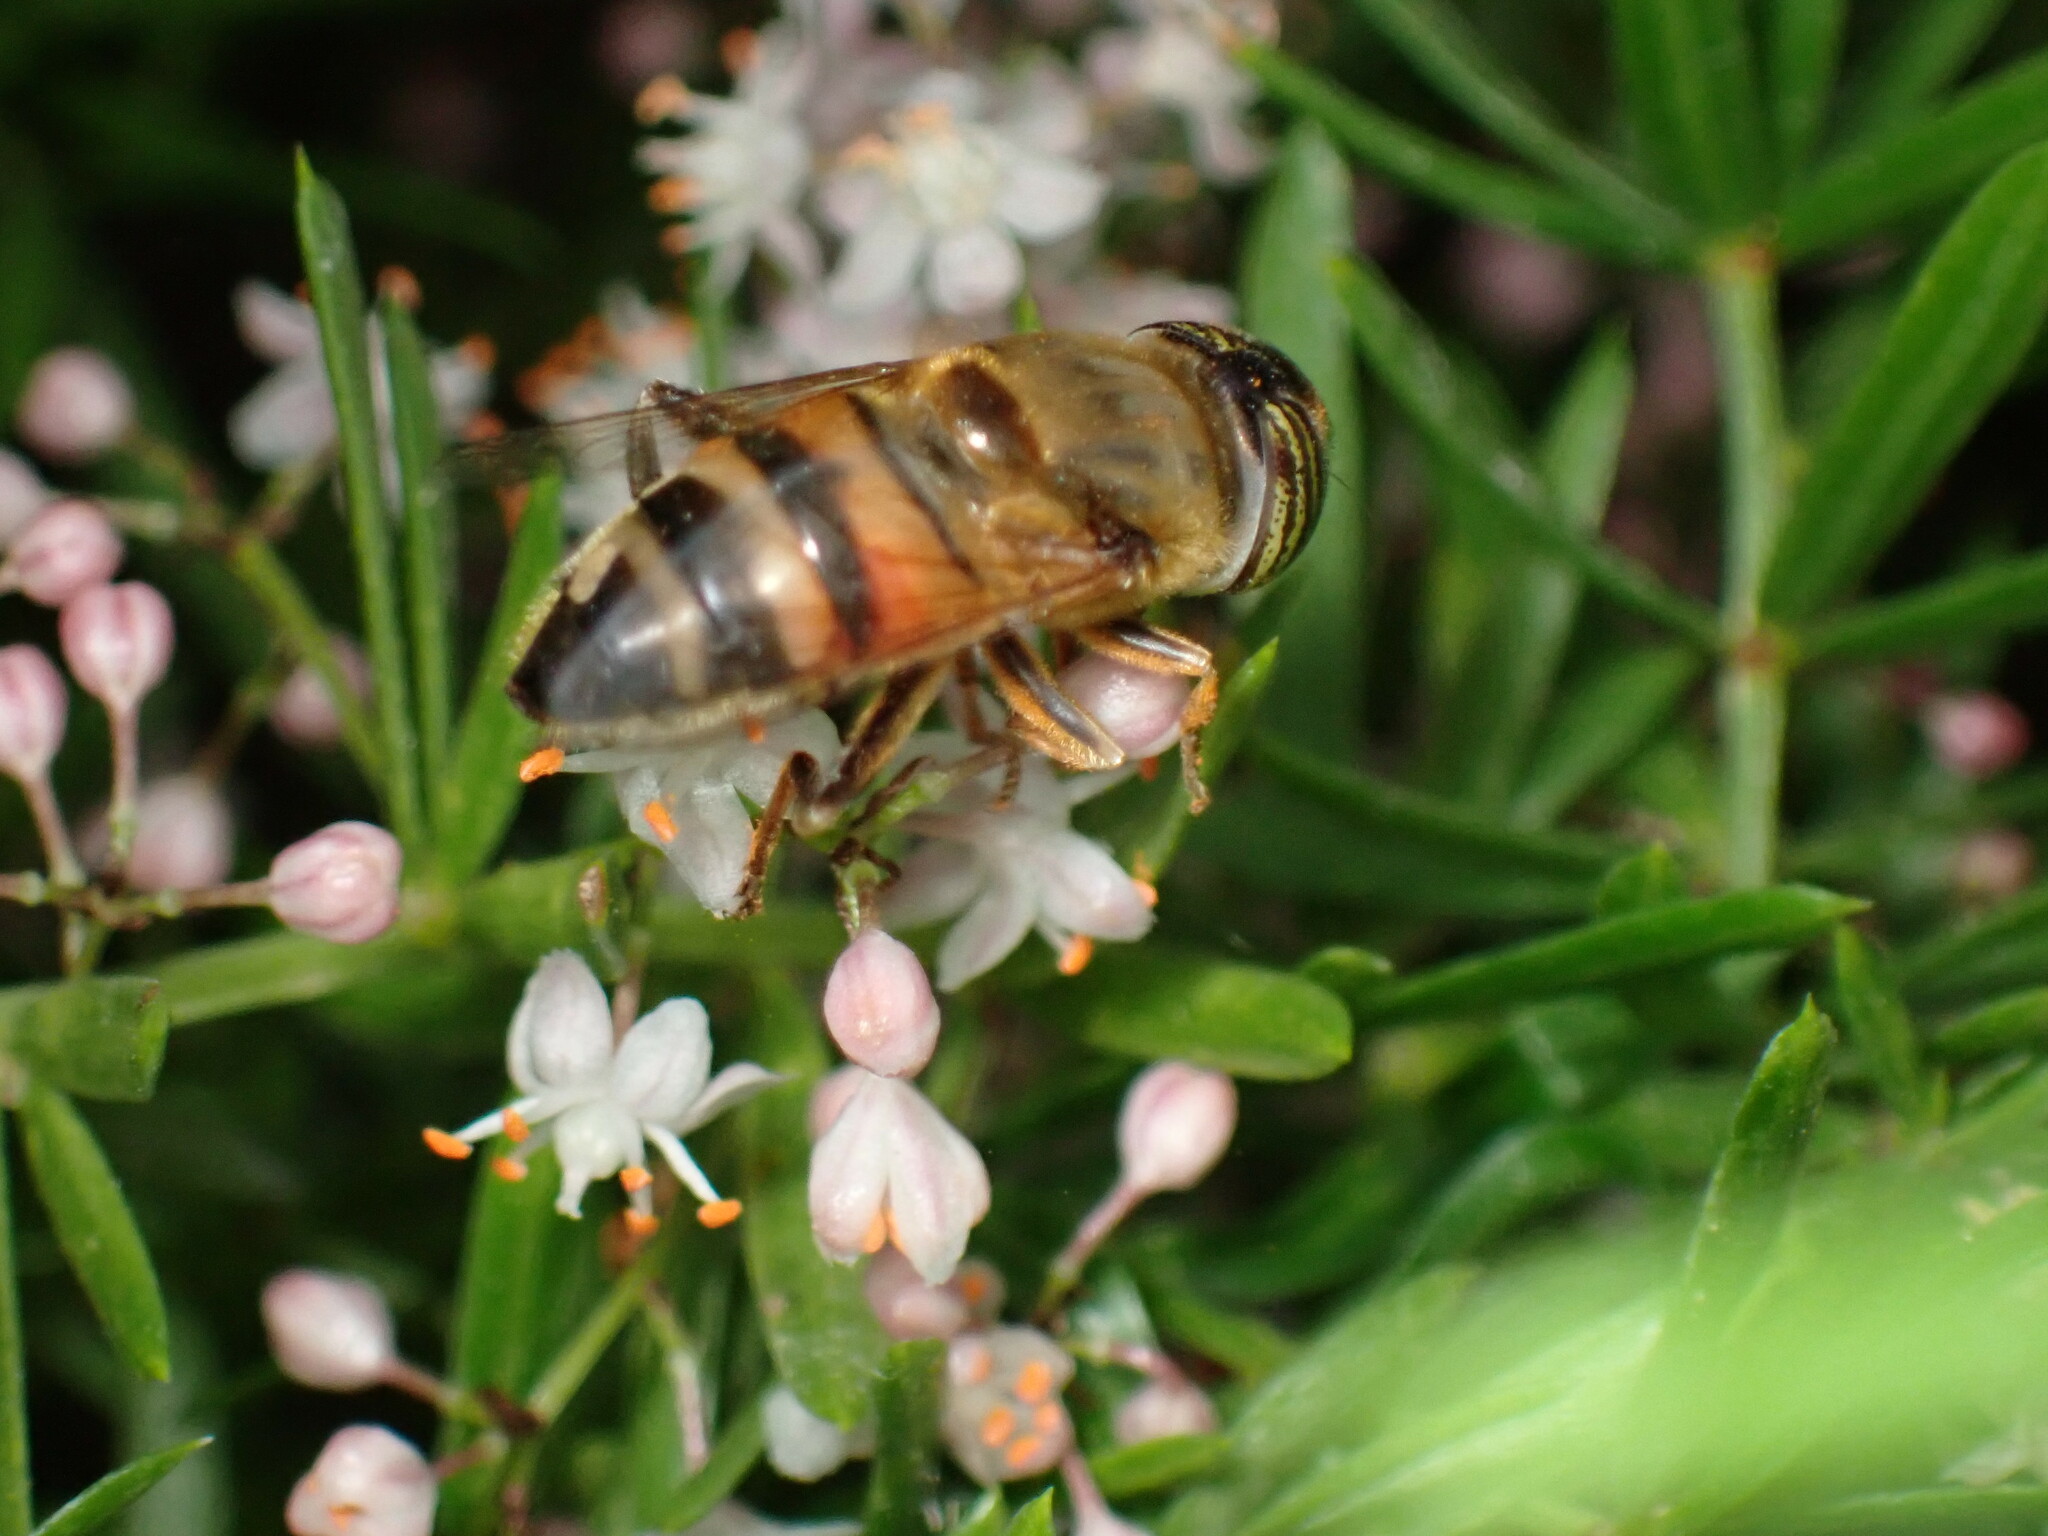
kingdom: Animalia
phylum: Arthropoda
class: Insecta
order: Diptera
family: Syrphidae
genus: Eristalinus
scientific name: Eristalinus taeniops
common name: Syrphid fly
